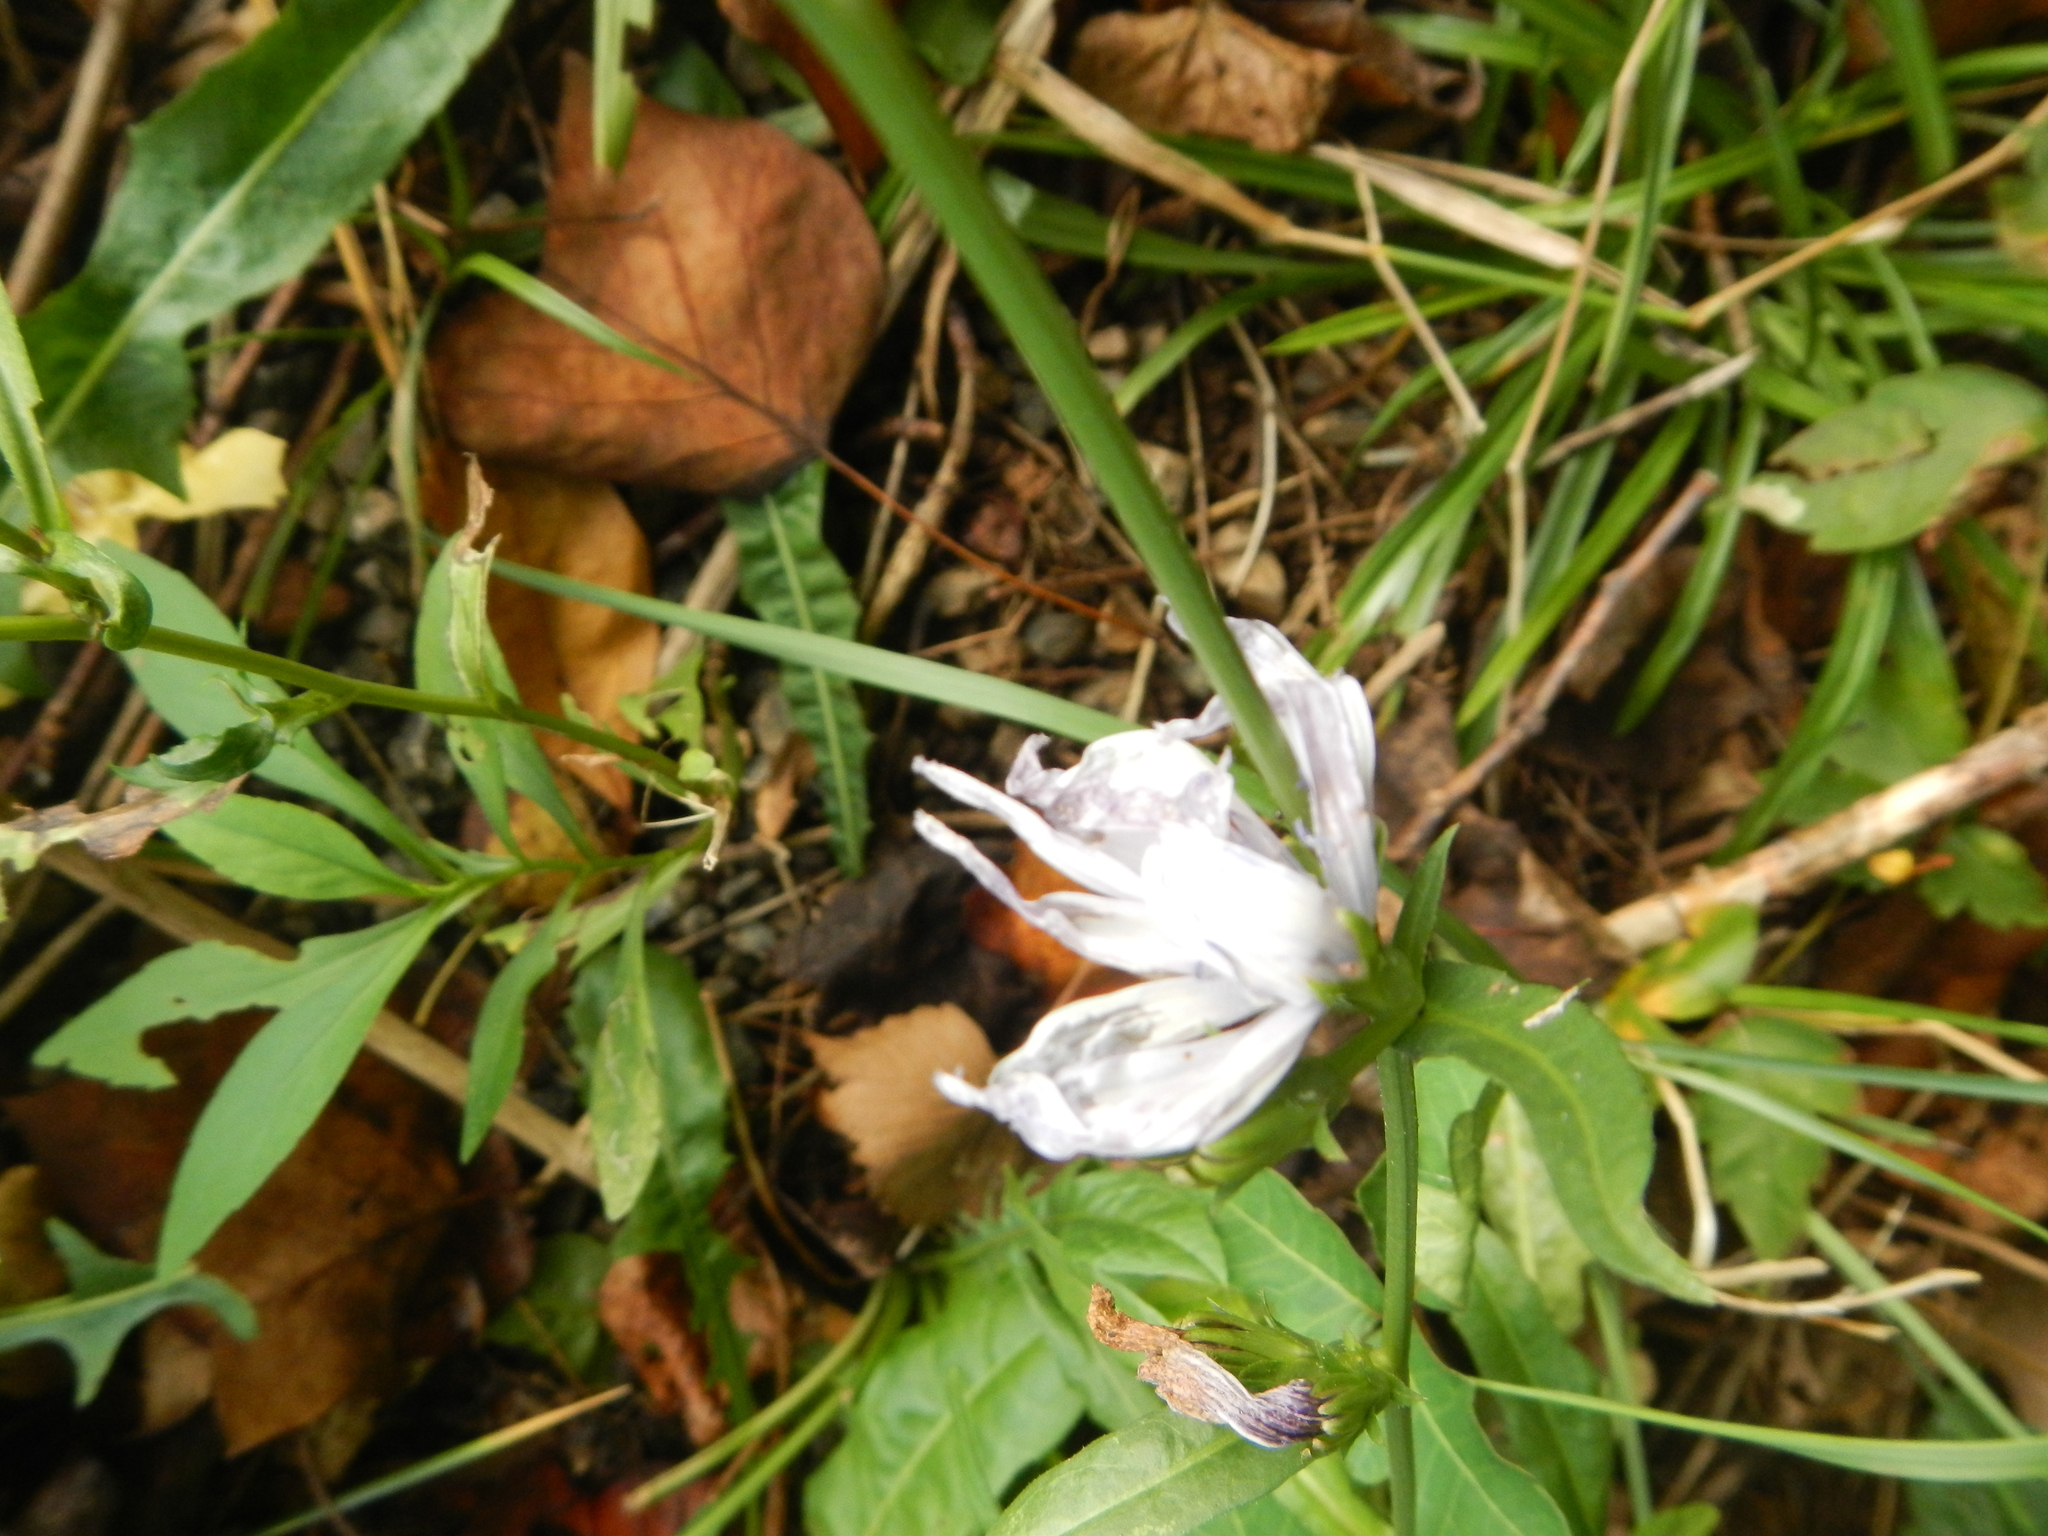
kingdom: Plantae
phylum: Tracheophyta
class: Magnoliopsida
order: Asterales
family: Asteraceae
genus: Cichorium
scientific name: Cichorium intybus
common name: Chicory
